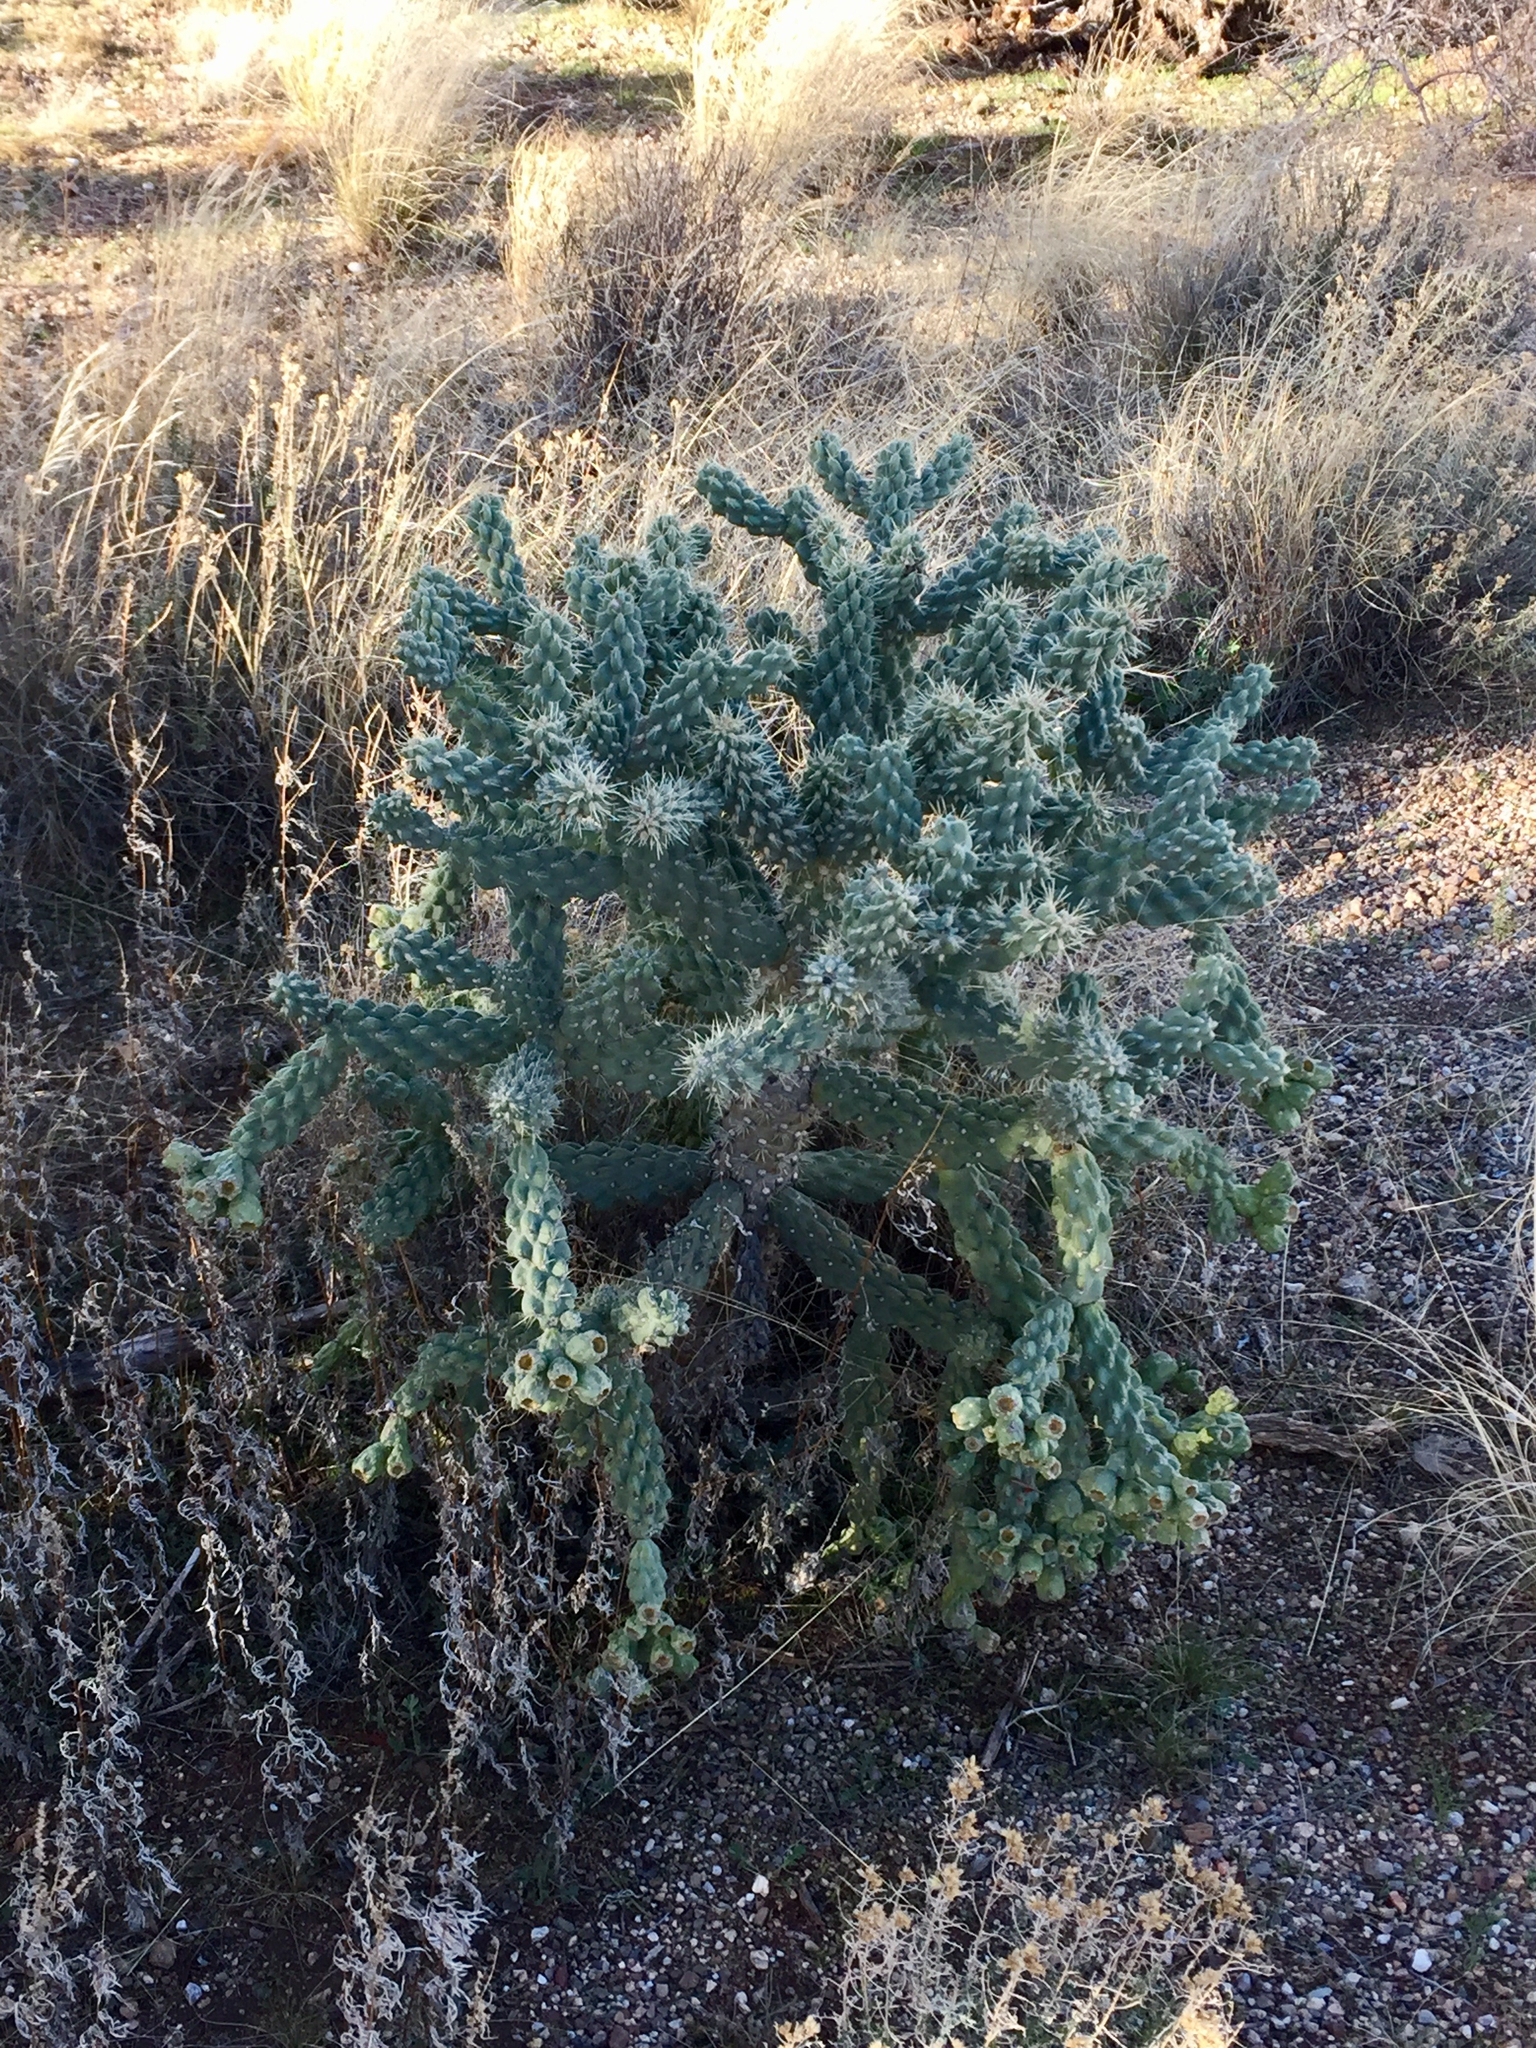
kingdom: Plantae
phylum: Tracheophyta
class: Magnoliopsida
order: Caryophyllales
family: Cactaceae
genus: Cylindropuntia
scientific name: Cylindropuntia fulgida
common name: Jumping cholla
